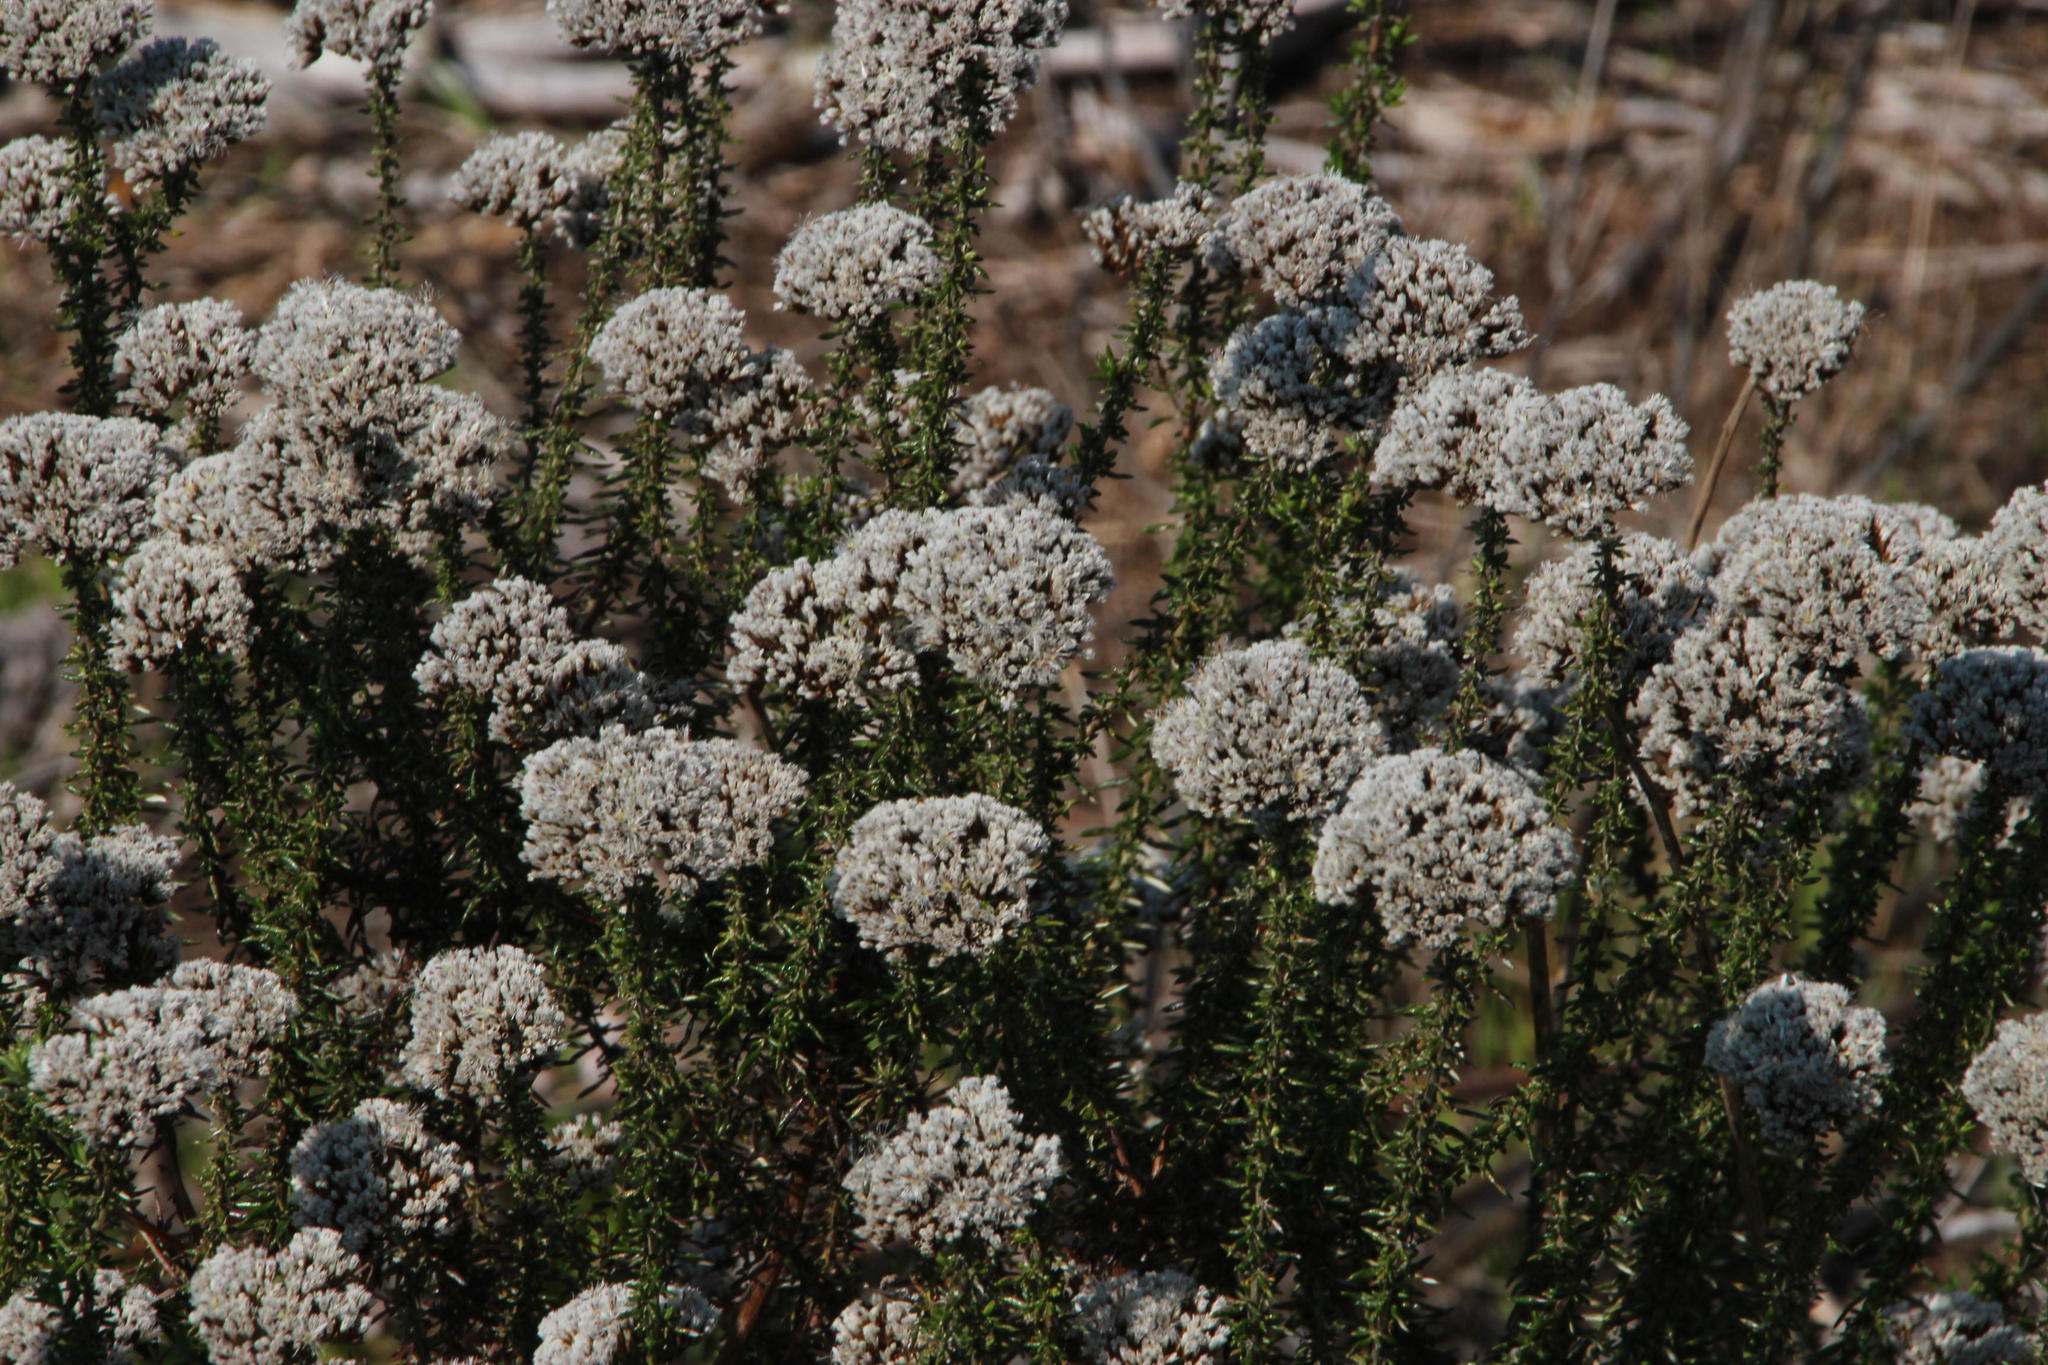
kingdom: Plantae
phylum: Tracheophyta
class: Magnoliopsida
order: Asterales
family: Asteraceae
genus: Metalasia
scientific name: Metalasia densa
